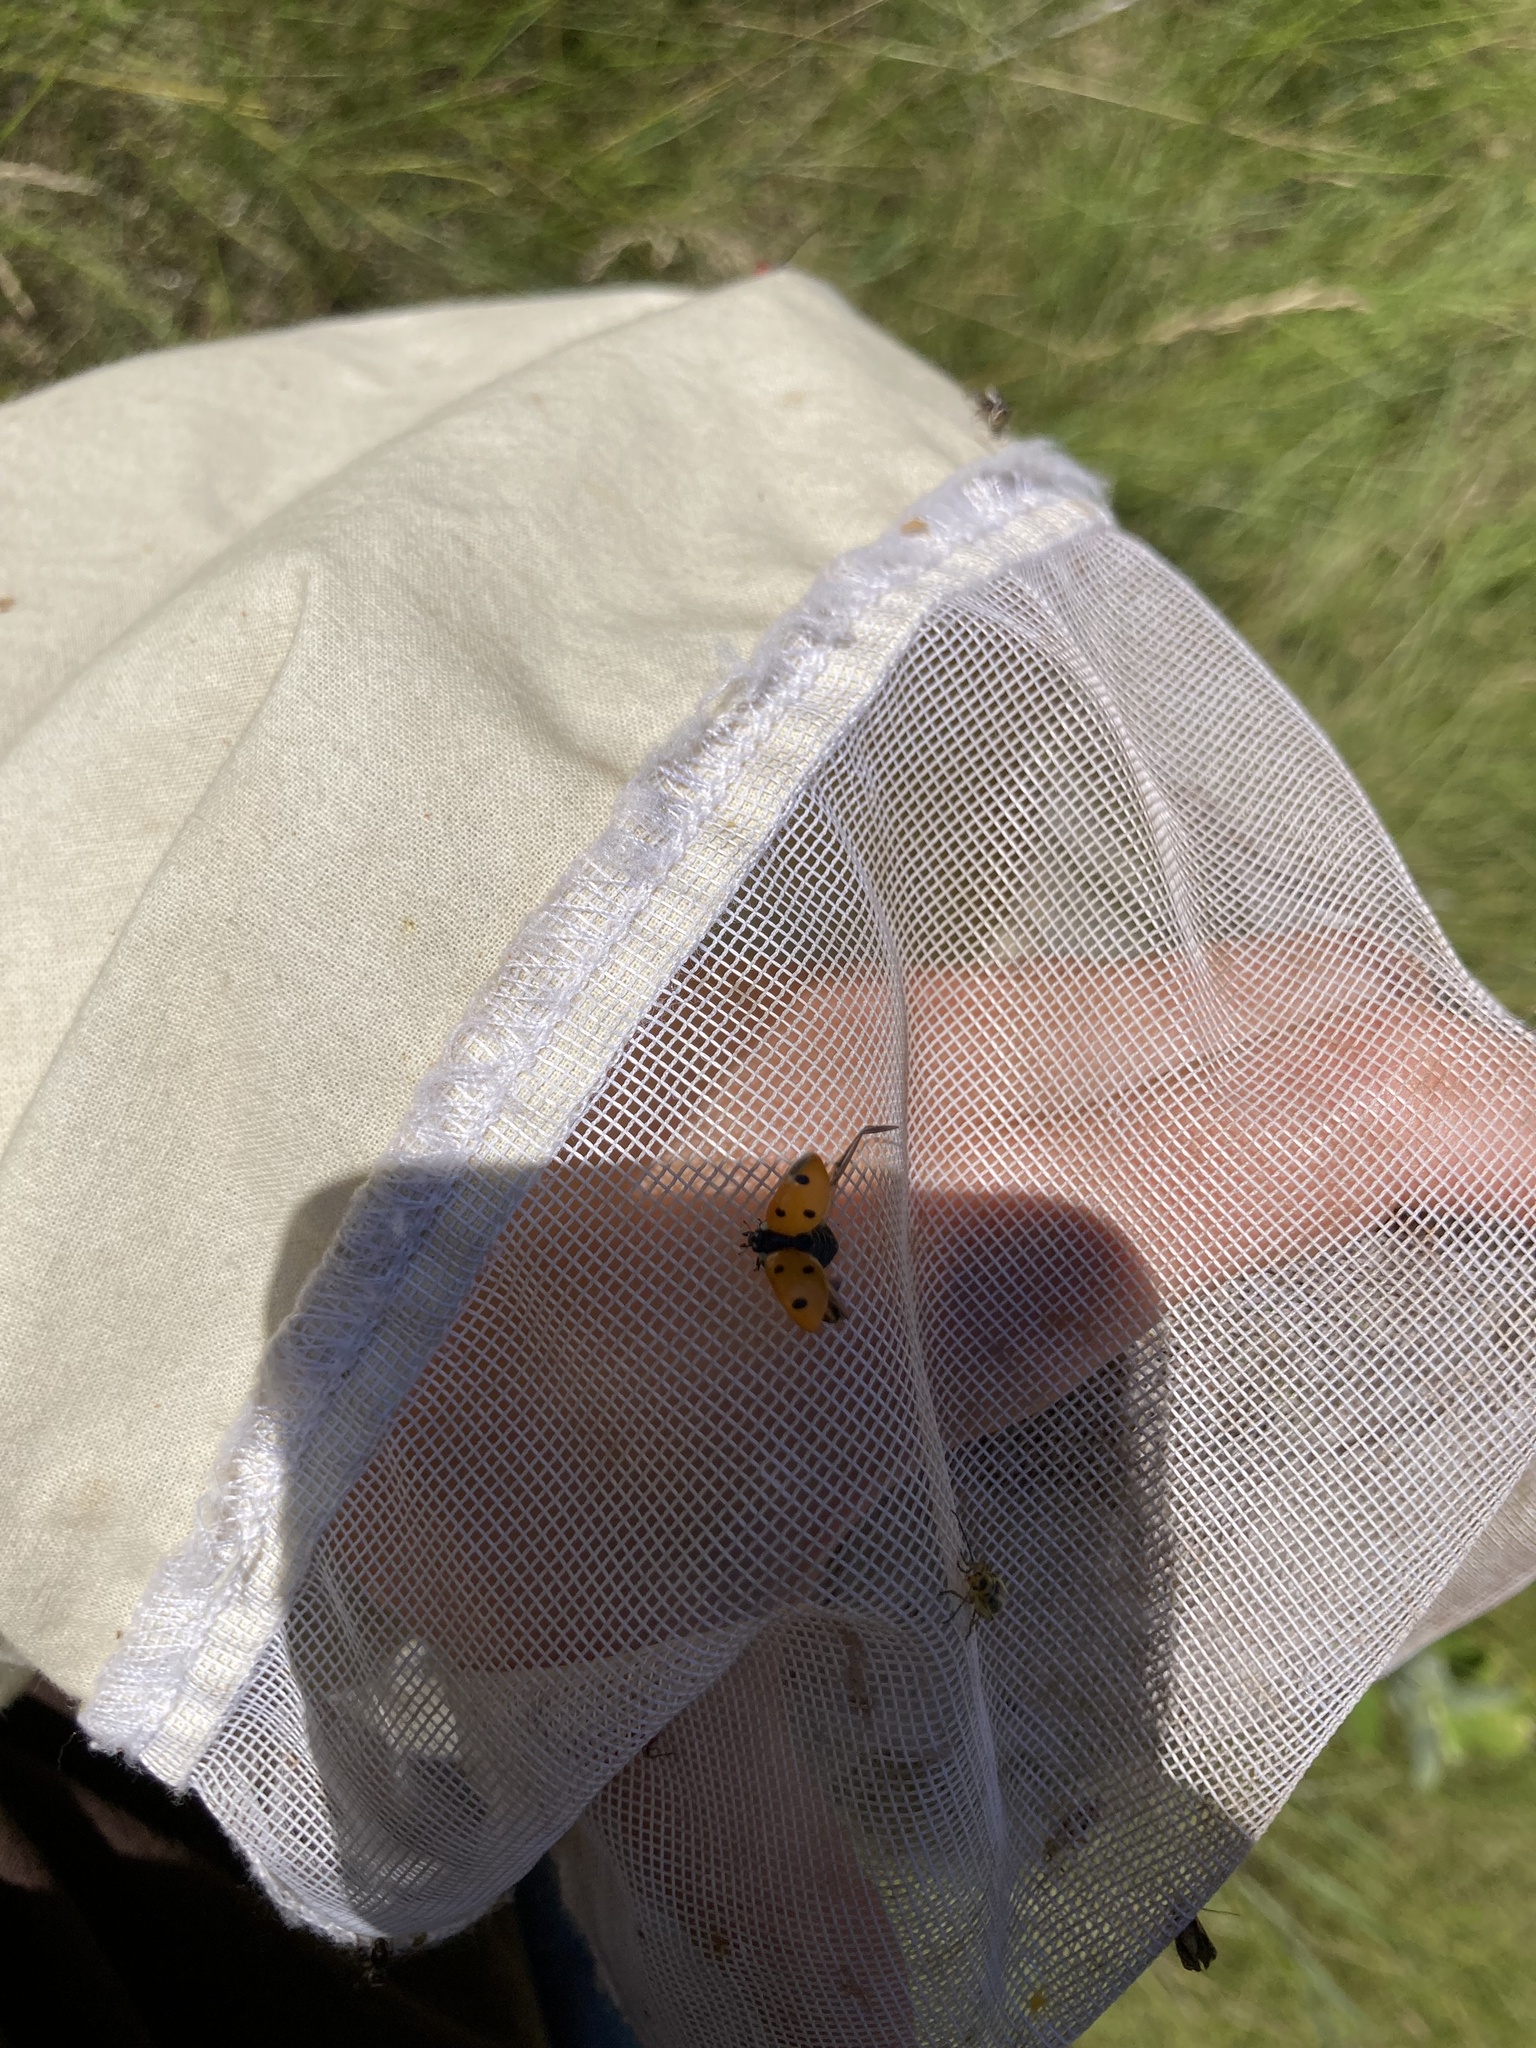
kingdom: Animalia
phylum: Arthropoda
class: Insecta
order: Coleoptera
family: Coccinellidae
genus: Coccinella
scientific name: Coccinella septempunctata
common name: Sevenspotted lady beetle
